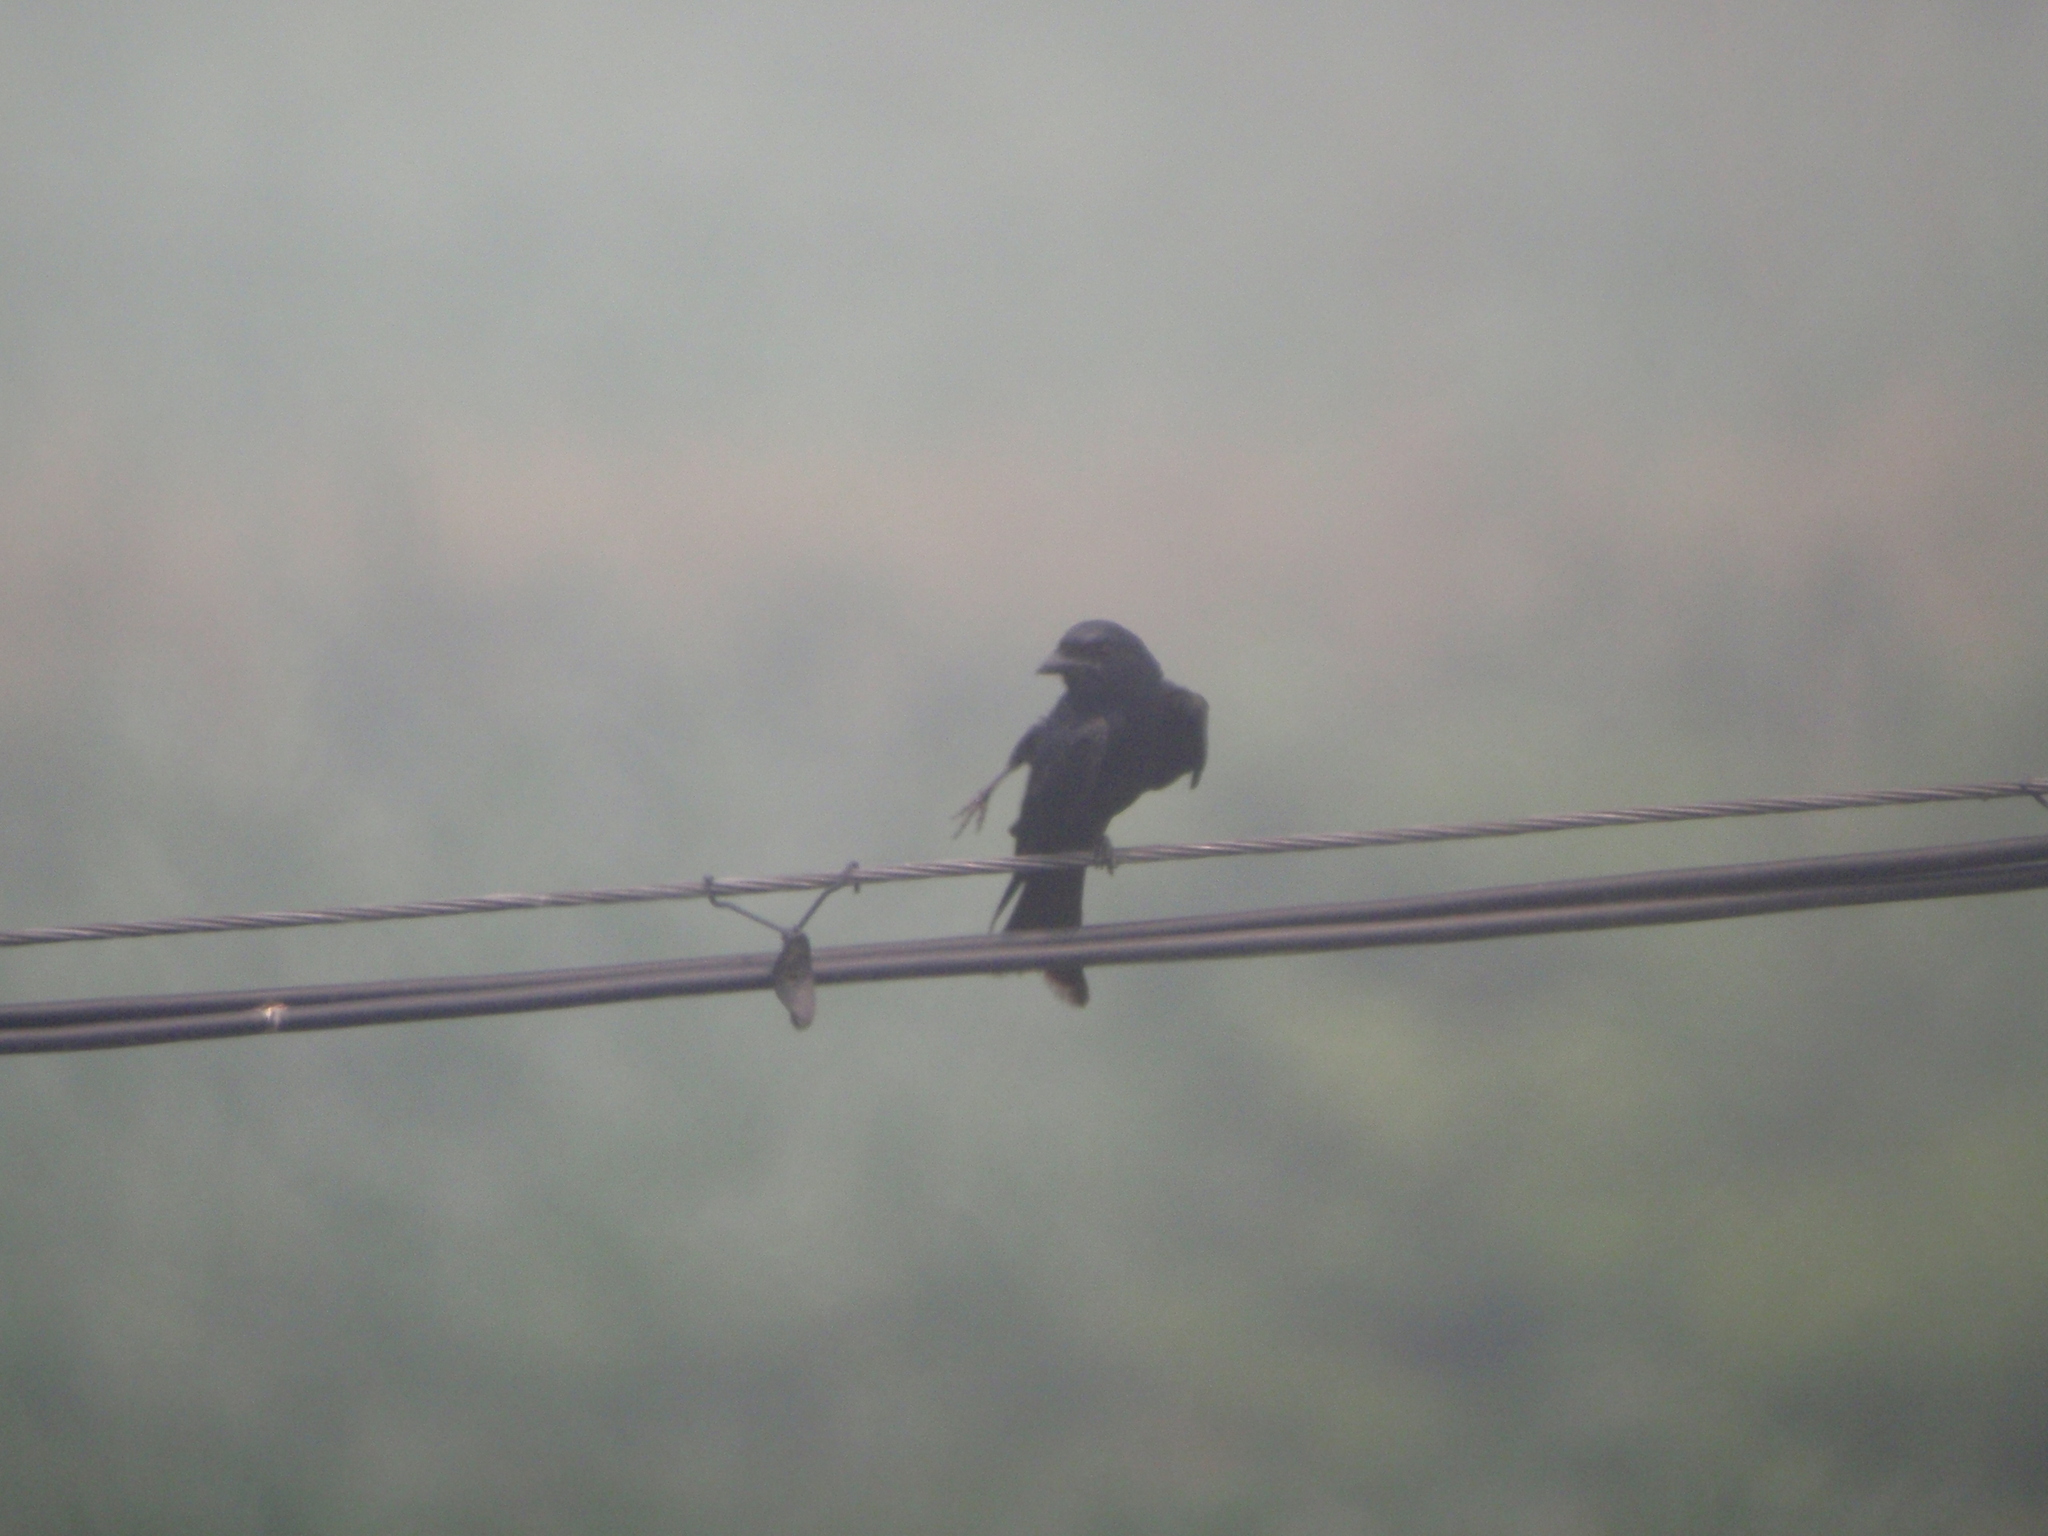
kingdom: Animalia
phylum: Chordata
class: Aves
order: Passeriformes
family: Dicruridae
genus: Dicrurus
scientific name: Dicrurus macrocercus
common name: Black drongo
